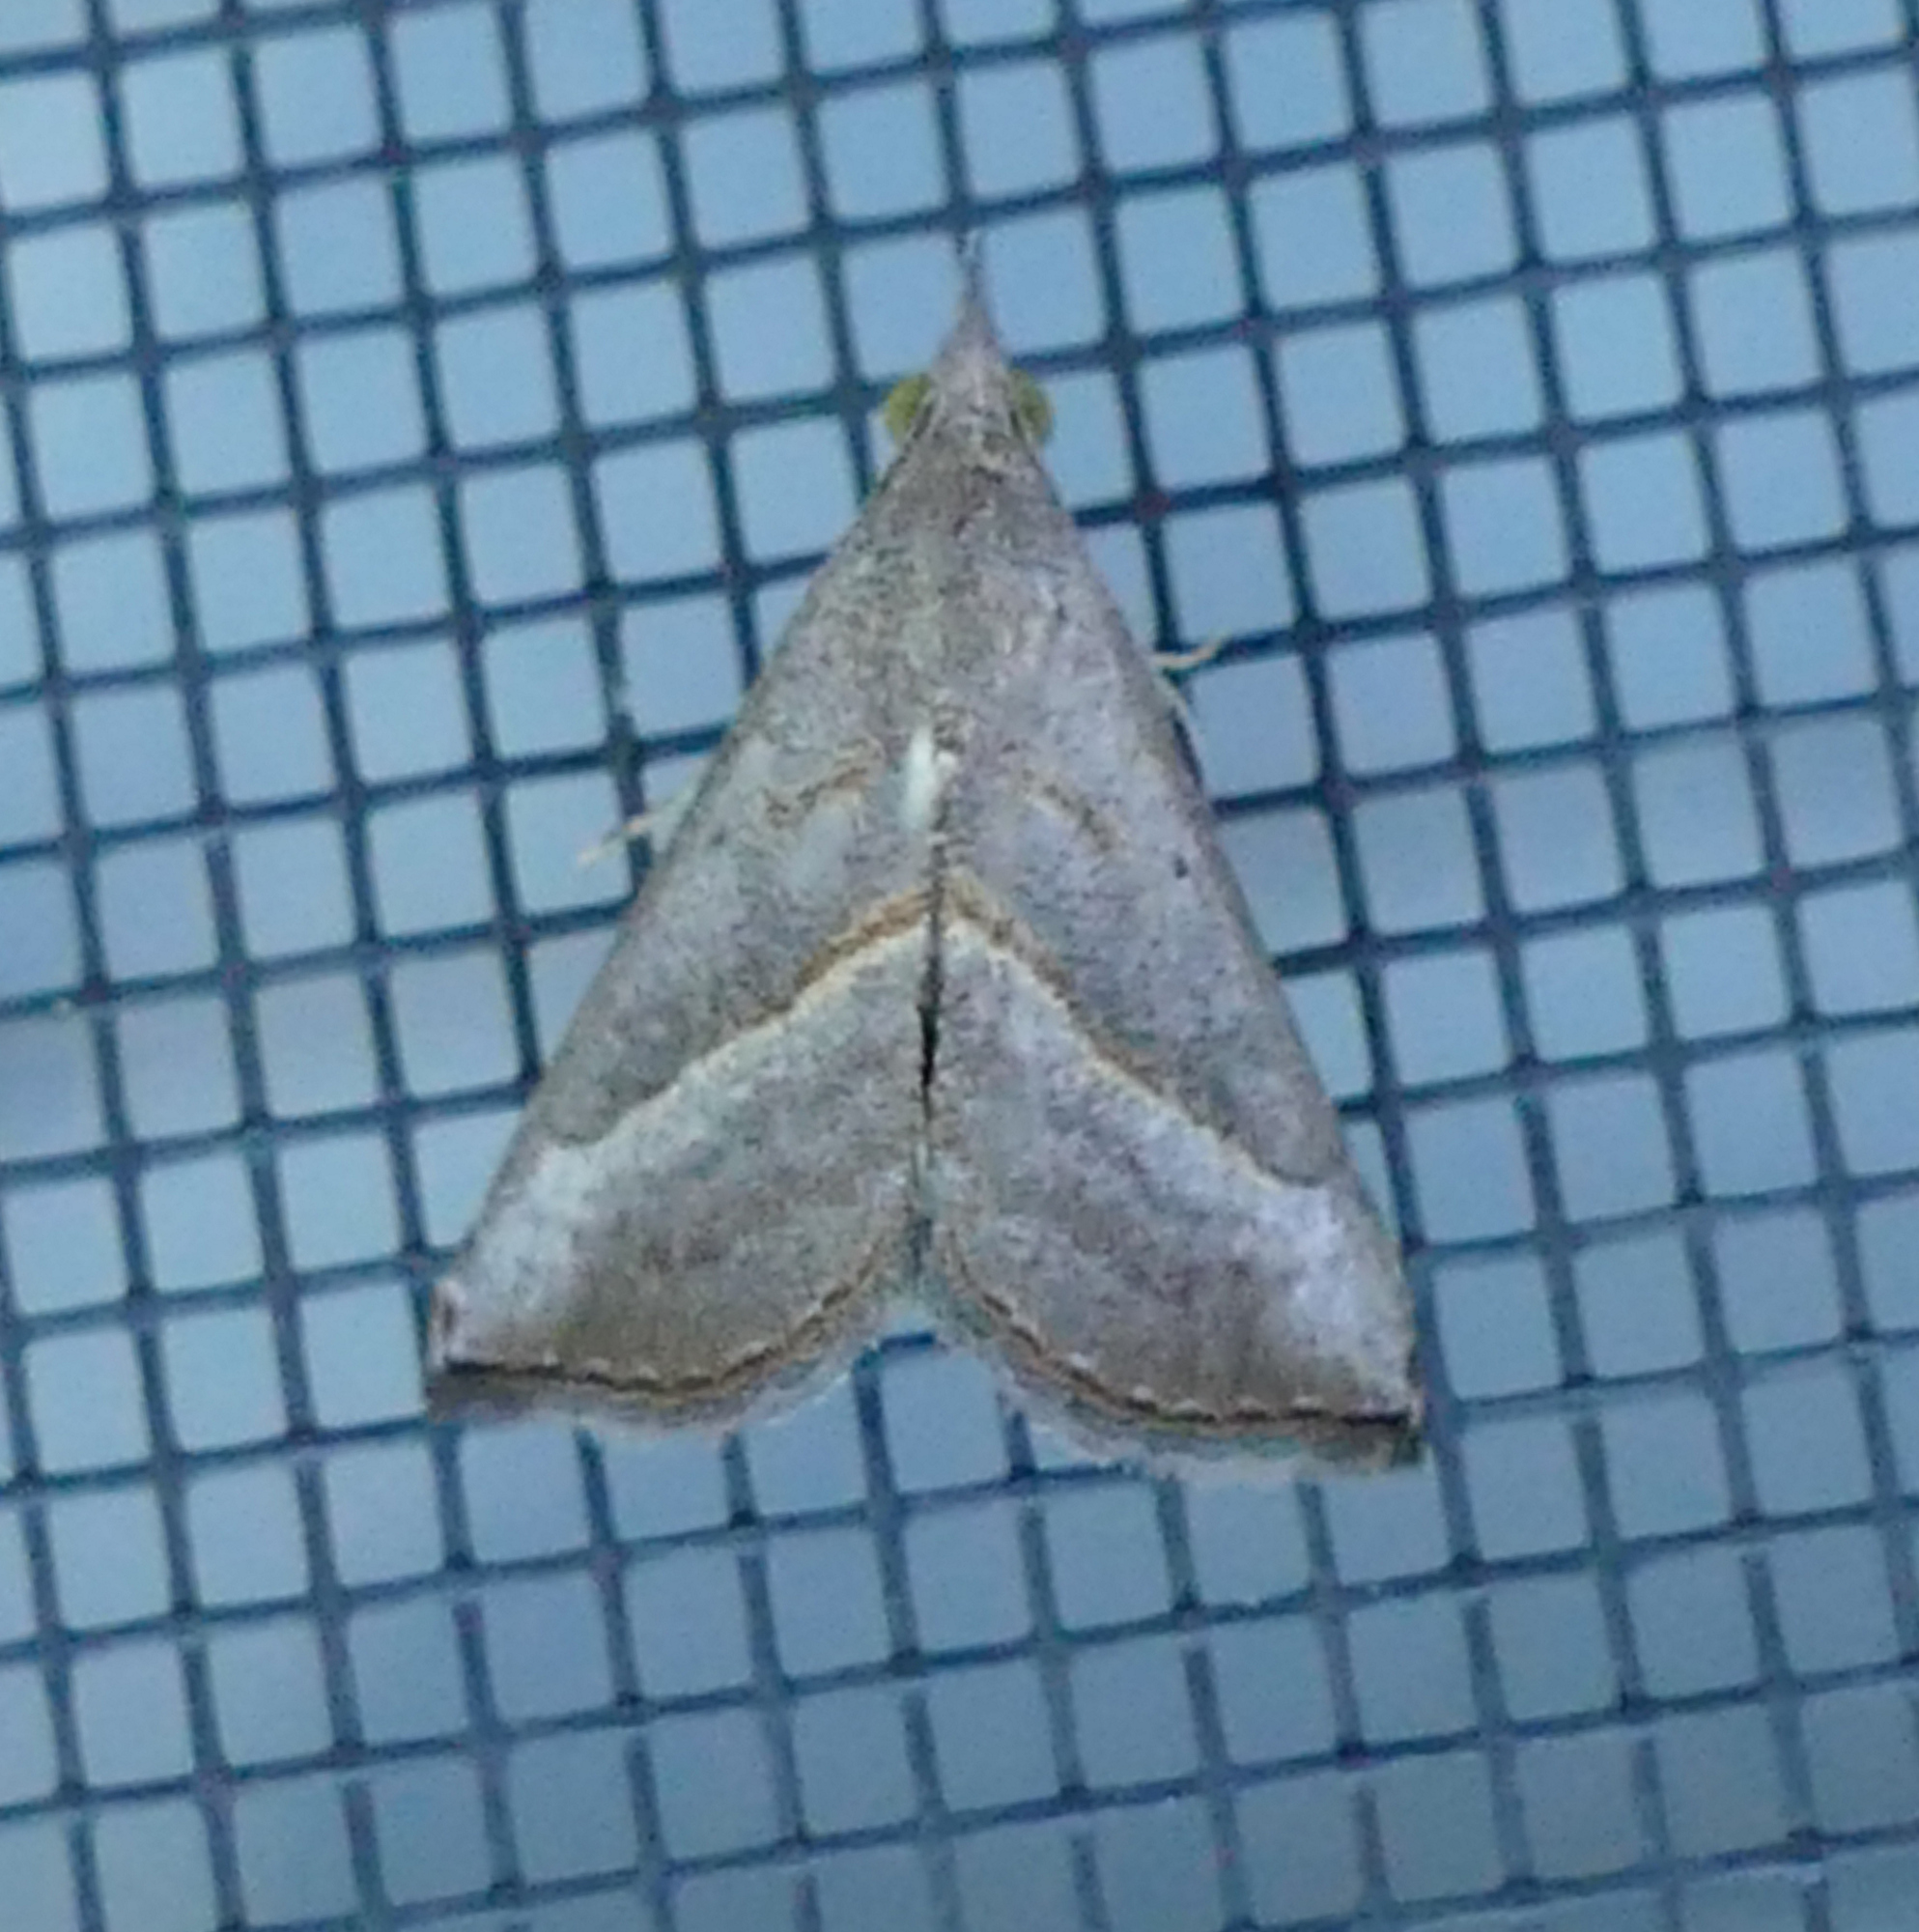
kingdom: Animalia
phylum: Arthropoda
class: Insecta
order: Lepidoptera
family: Erebidae
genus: Hypena
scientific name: Hypena degesalis
